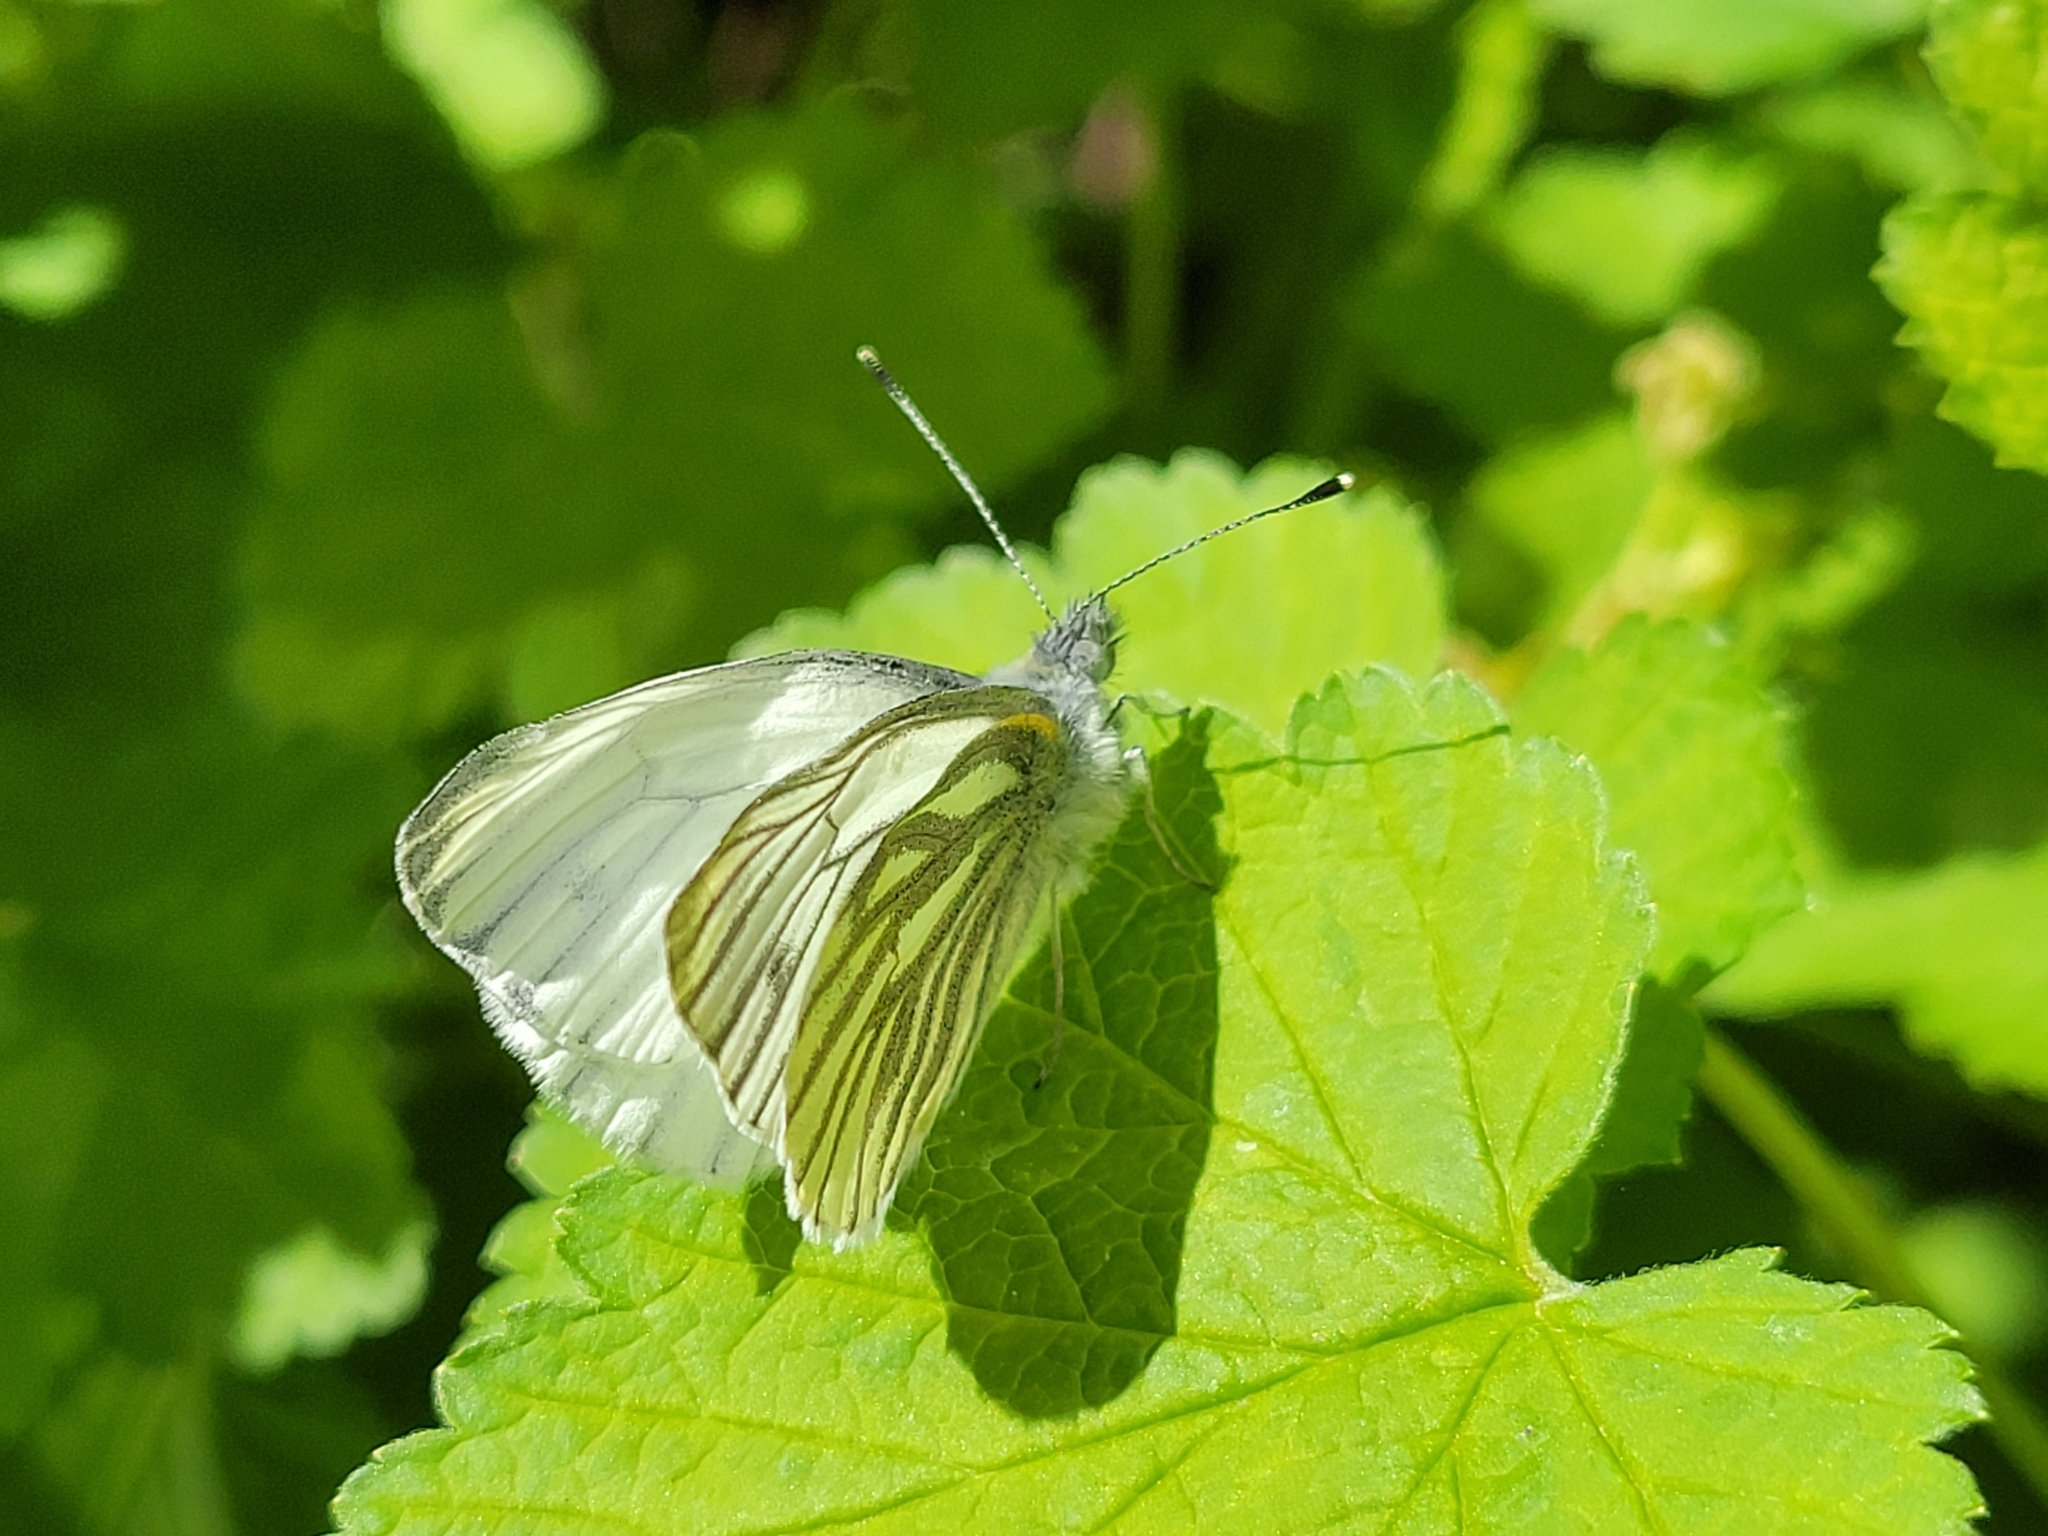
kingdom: Animalia
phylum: Arthropoda
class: Insecta
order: Lepidoptera
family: Pieridae
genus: Pieris
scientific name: Pieris napi
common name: Green-veined white
